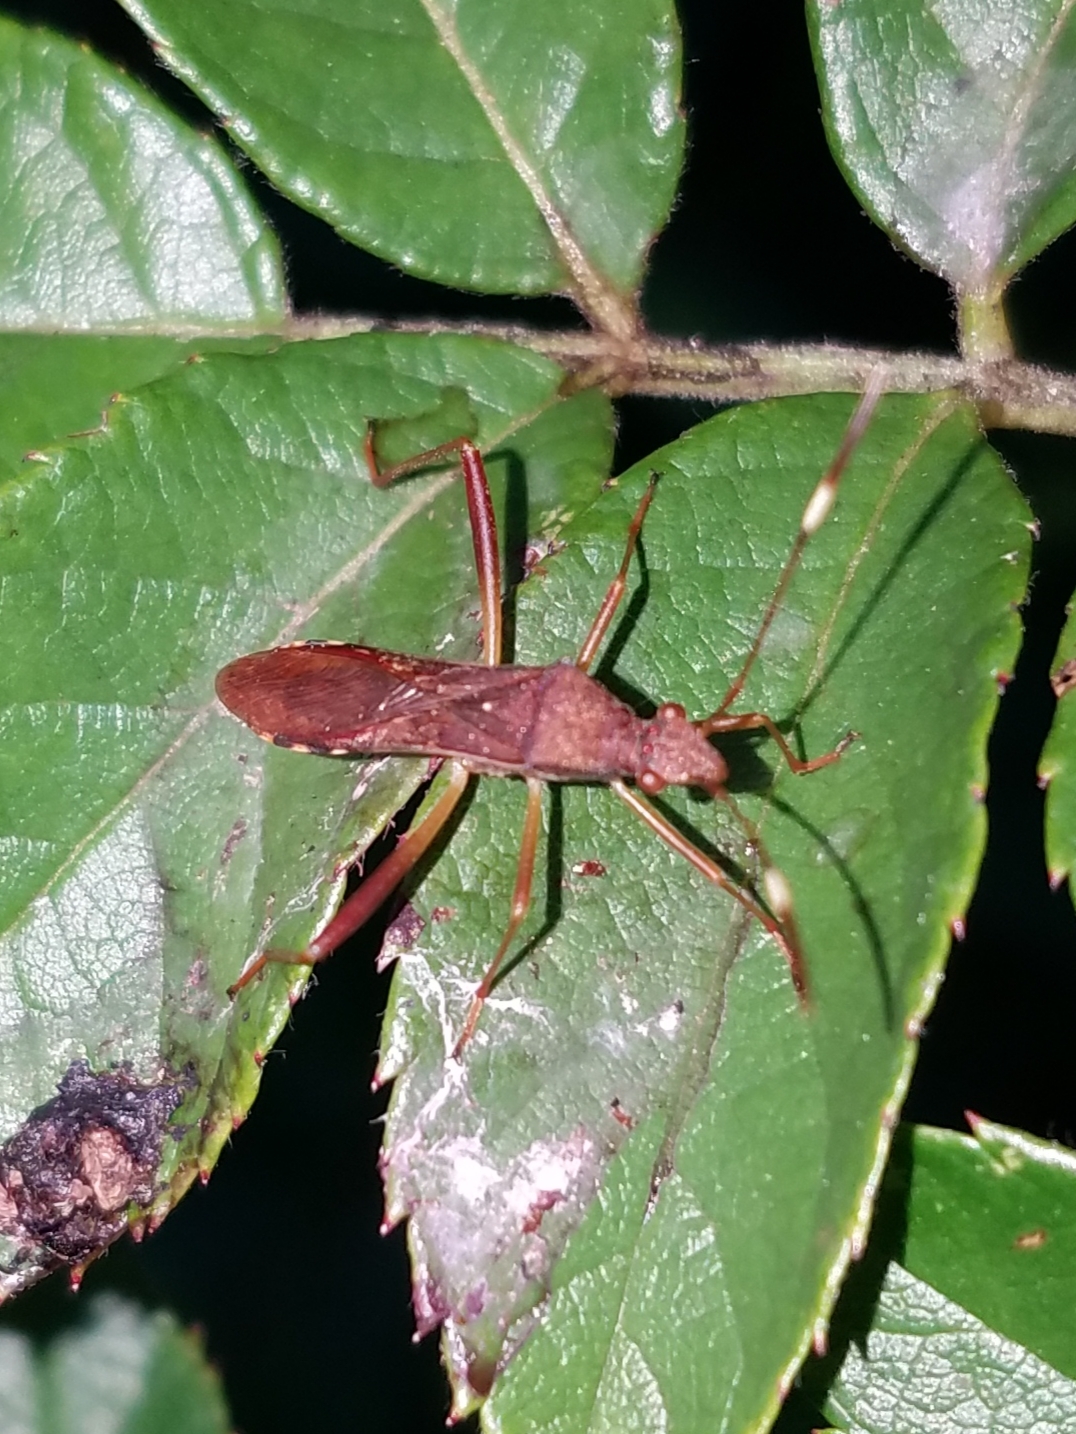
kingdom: Animalia
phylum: Arthropoda
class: Insecta
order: Hemiptera
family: Alydidae
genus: Megalotomus
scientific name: Megalotomus quinquespinosus
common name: Lupine bug
